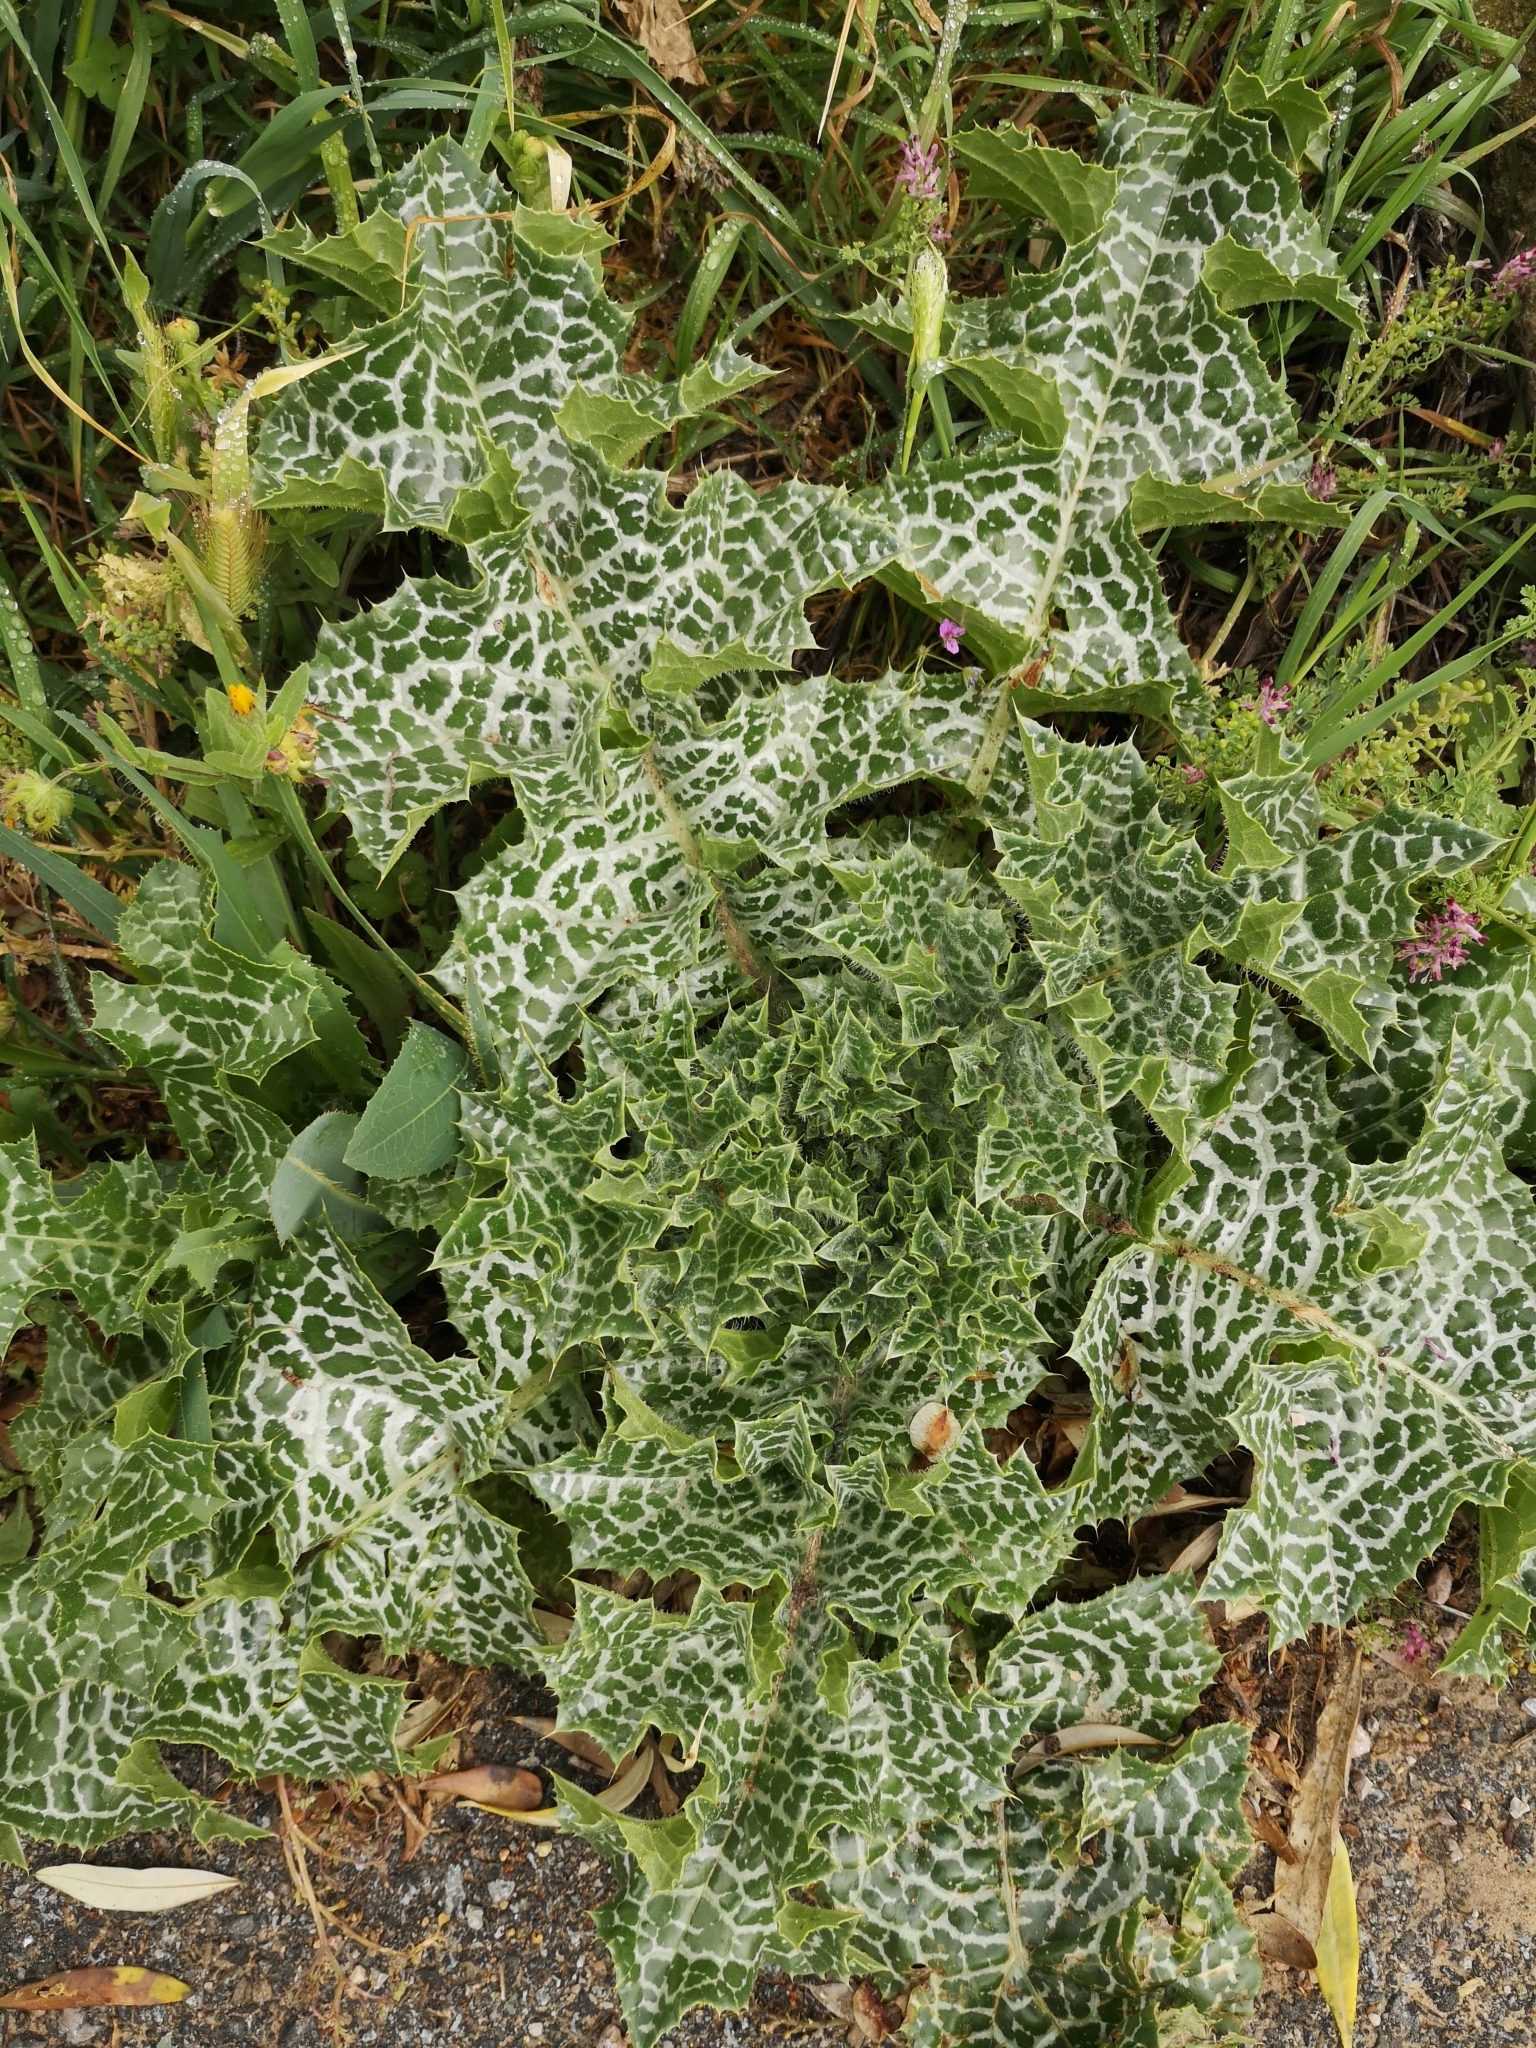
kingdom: Plantae
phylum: Tracheophyta
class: Magnoliopsida
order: Asterales
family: Asteraceae
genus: Silybum
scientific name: Silybum marianum
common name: Milk thistle
